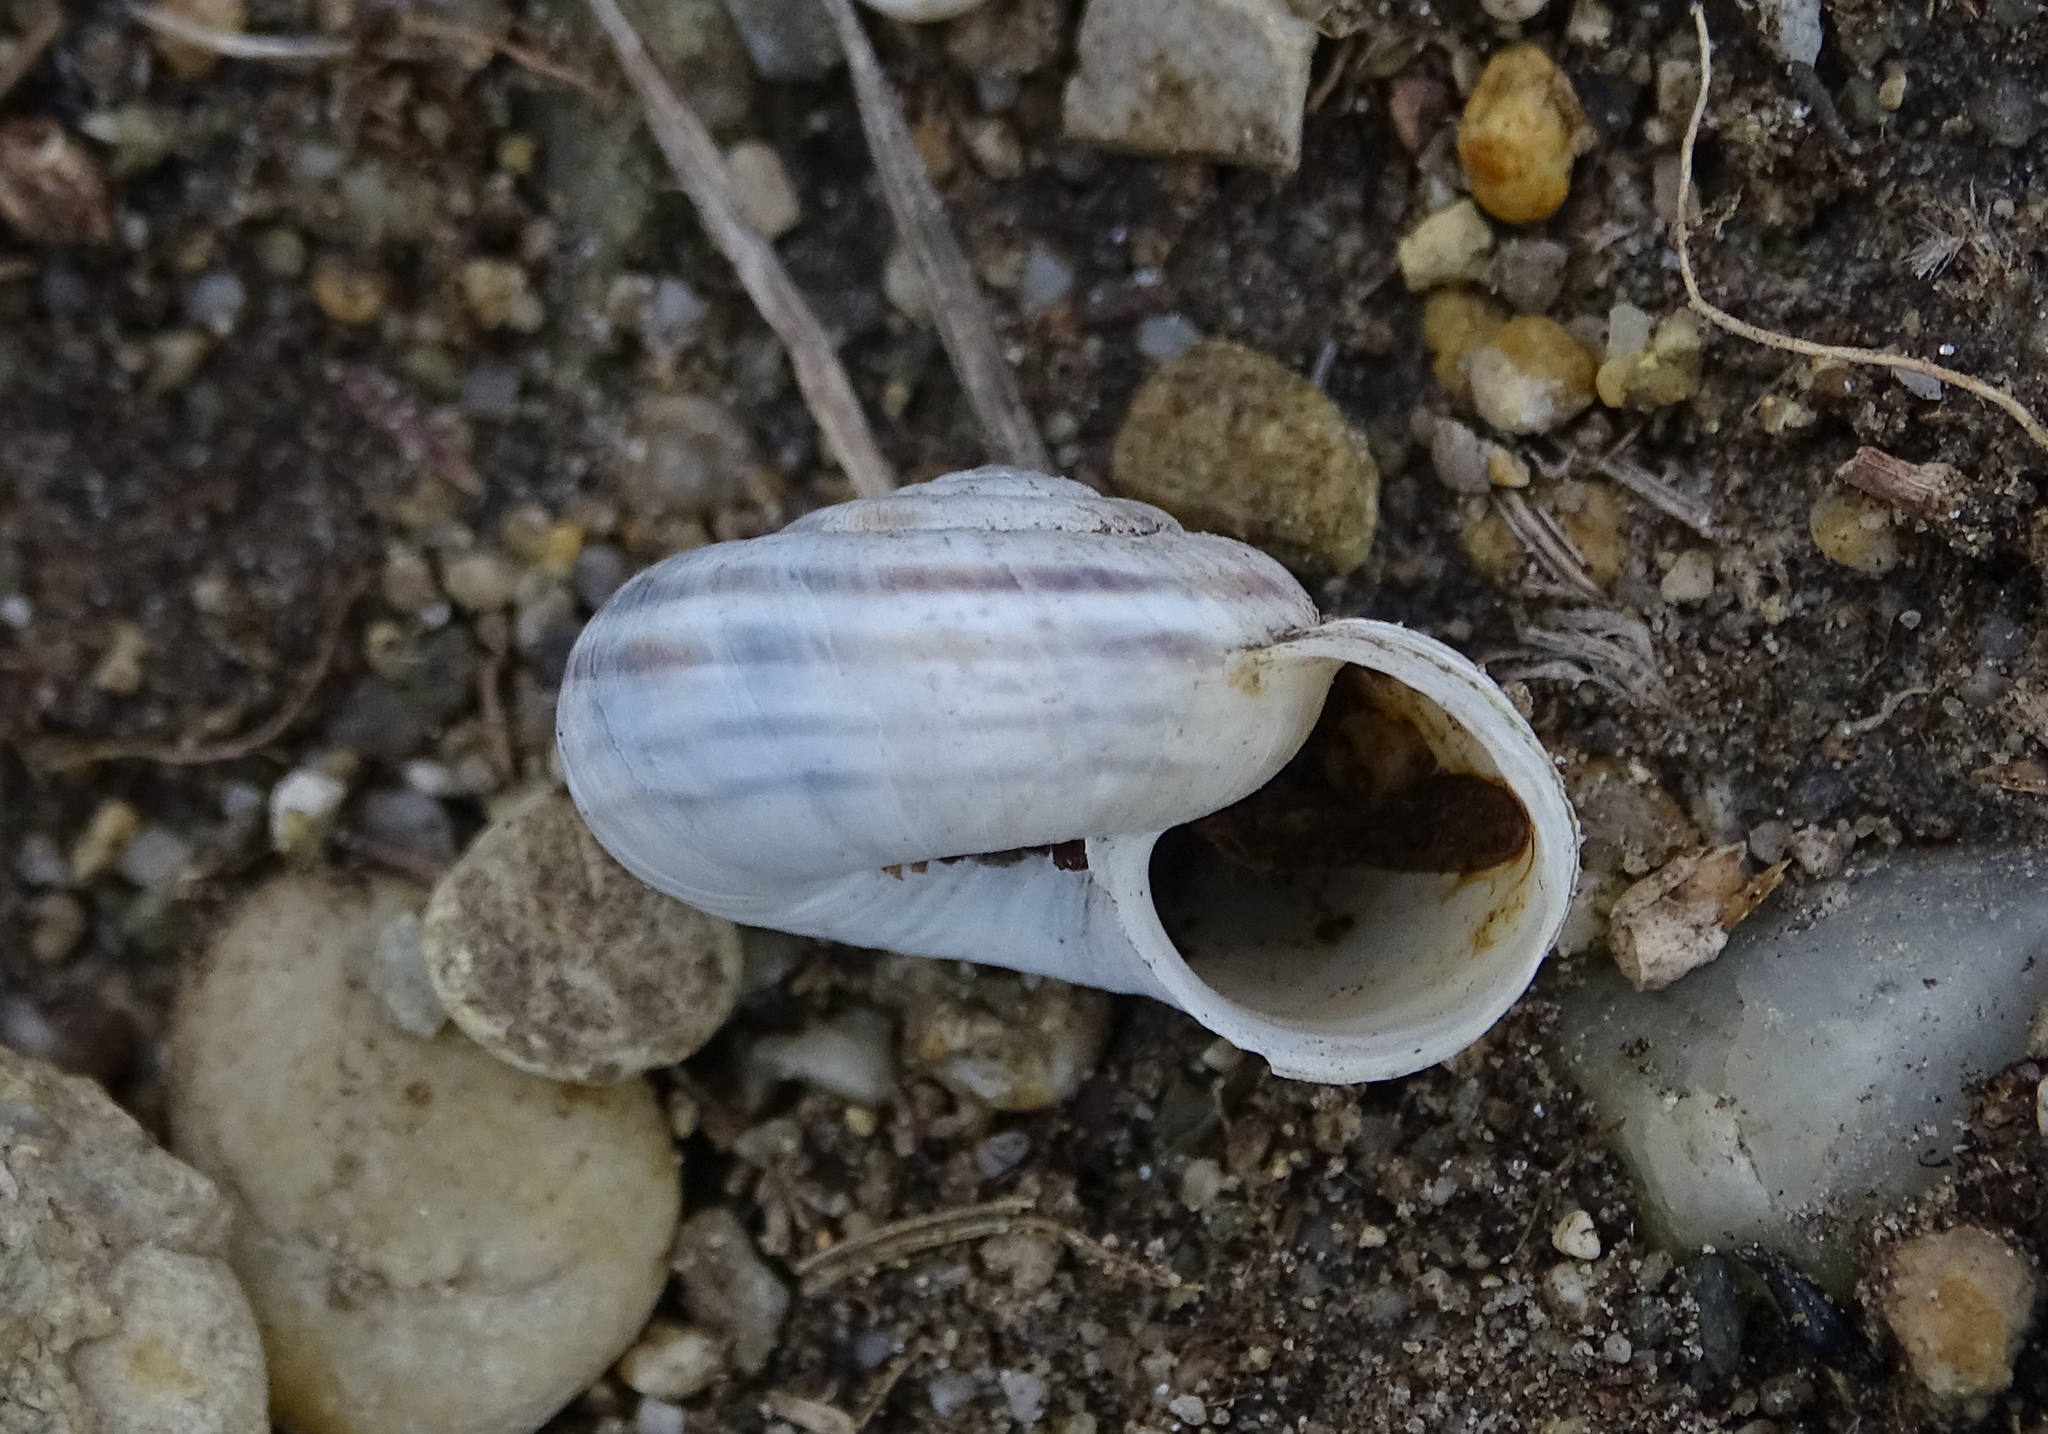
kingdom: Animalia
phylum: Mollusca
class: Gastropoda
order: Stylommatophora
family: Geomitridae
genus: Xerolenta
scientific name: Xerolenta obvia
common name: White heath snail
